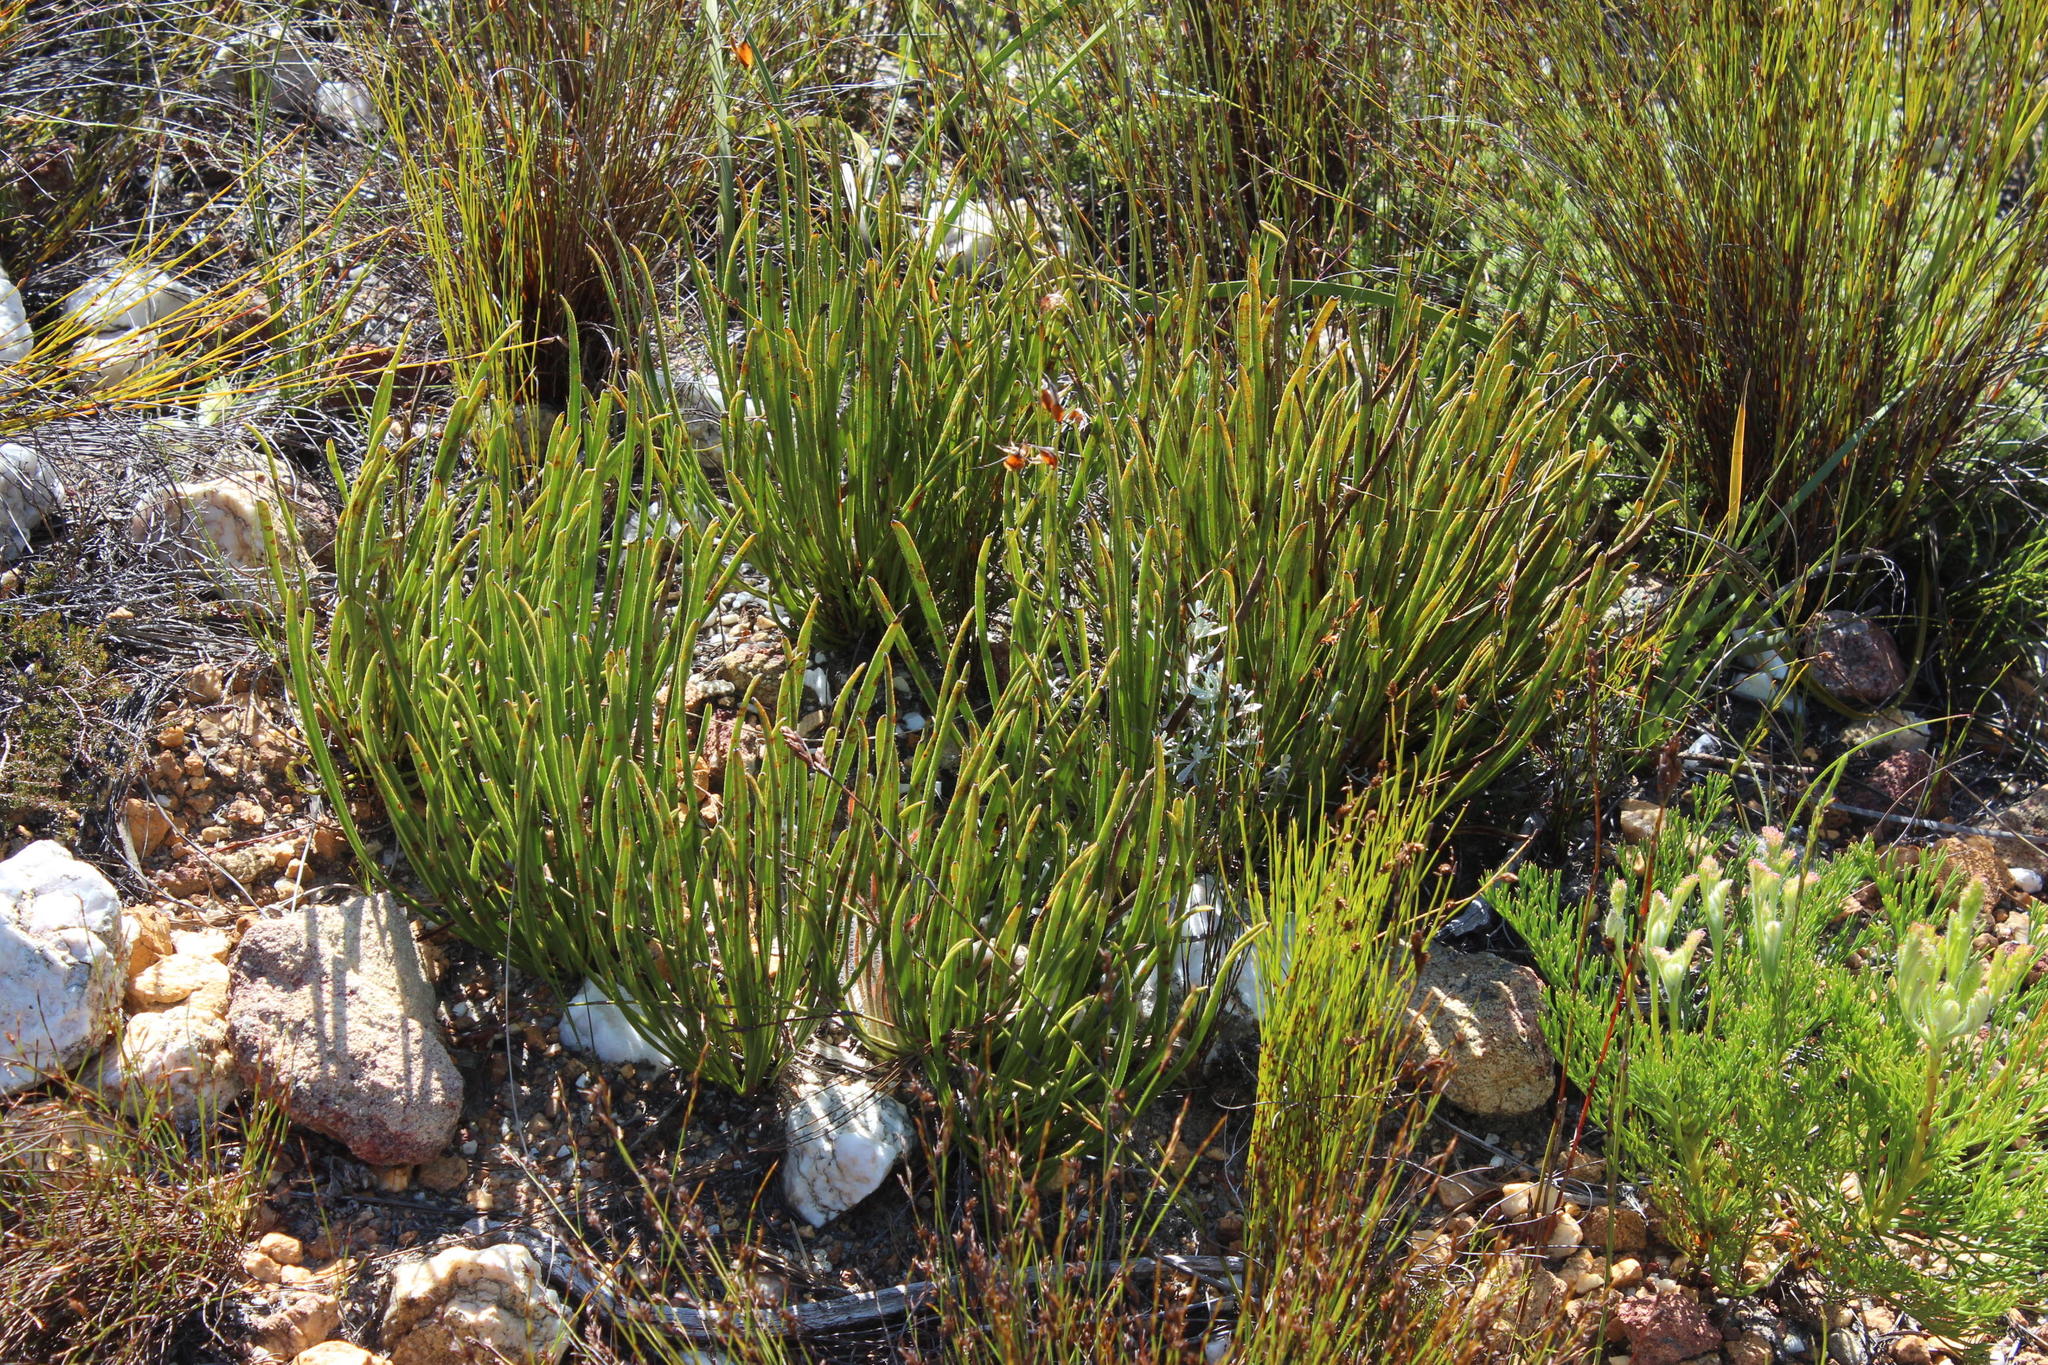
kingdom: Plantae
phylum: Tracheophyta
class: Magnoliopsida
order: Proteales
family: Proteaceae
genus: Protea
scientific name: Protea scabra
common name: Sandpaper-leaf sugarbush
